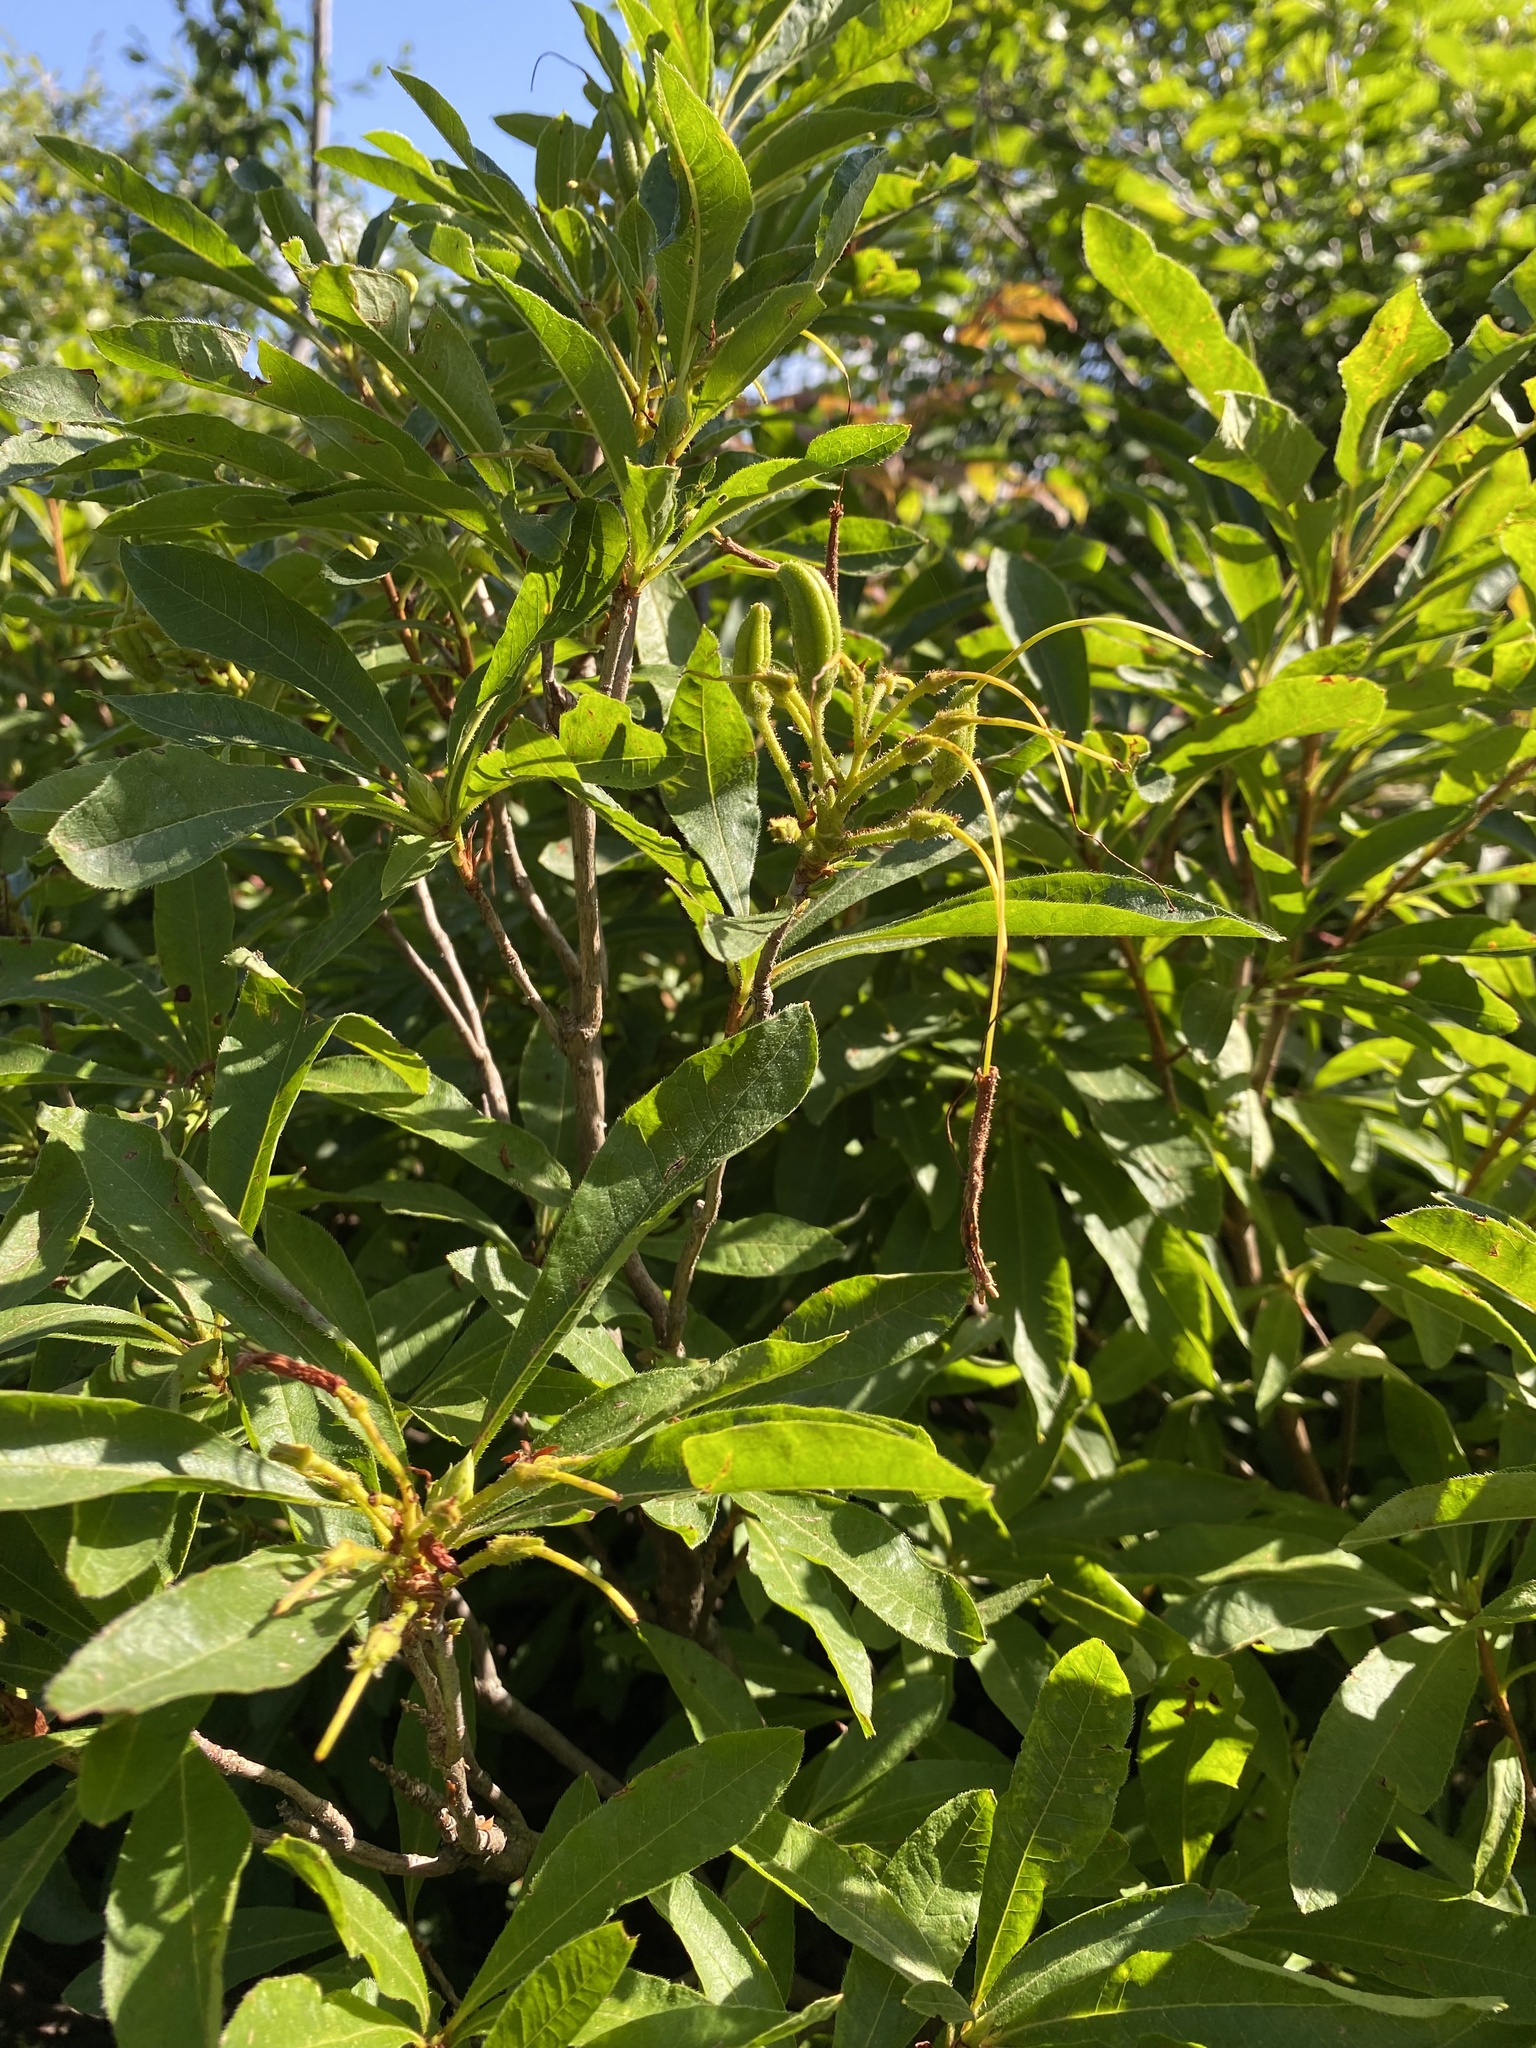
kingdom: Plantae
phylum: Tracheophyta
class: Magnoliopsida
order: Ericales
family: Ericaceae
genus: Rhododendron
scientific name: Rhododendron luteum
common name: Yellow azalea
